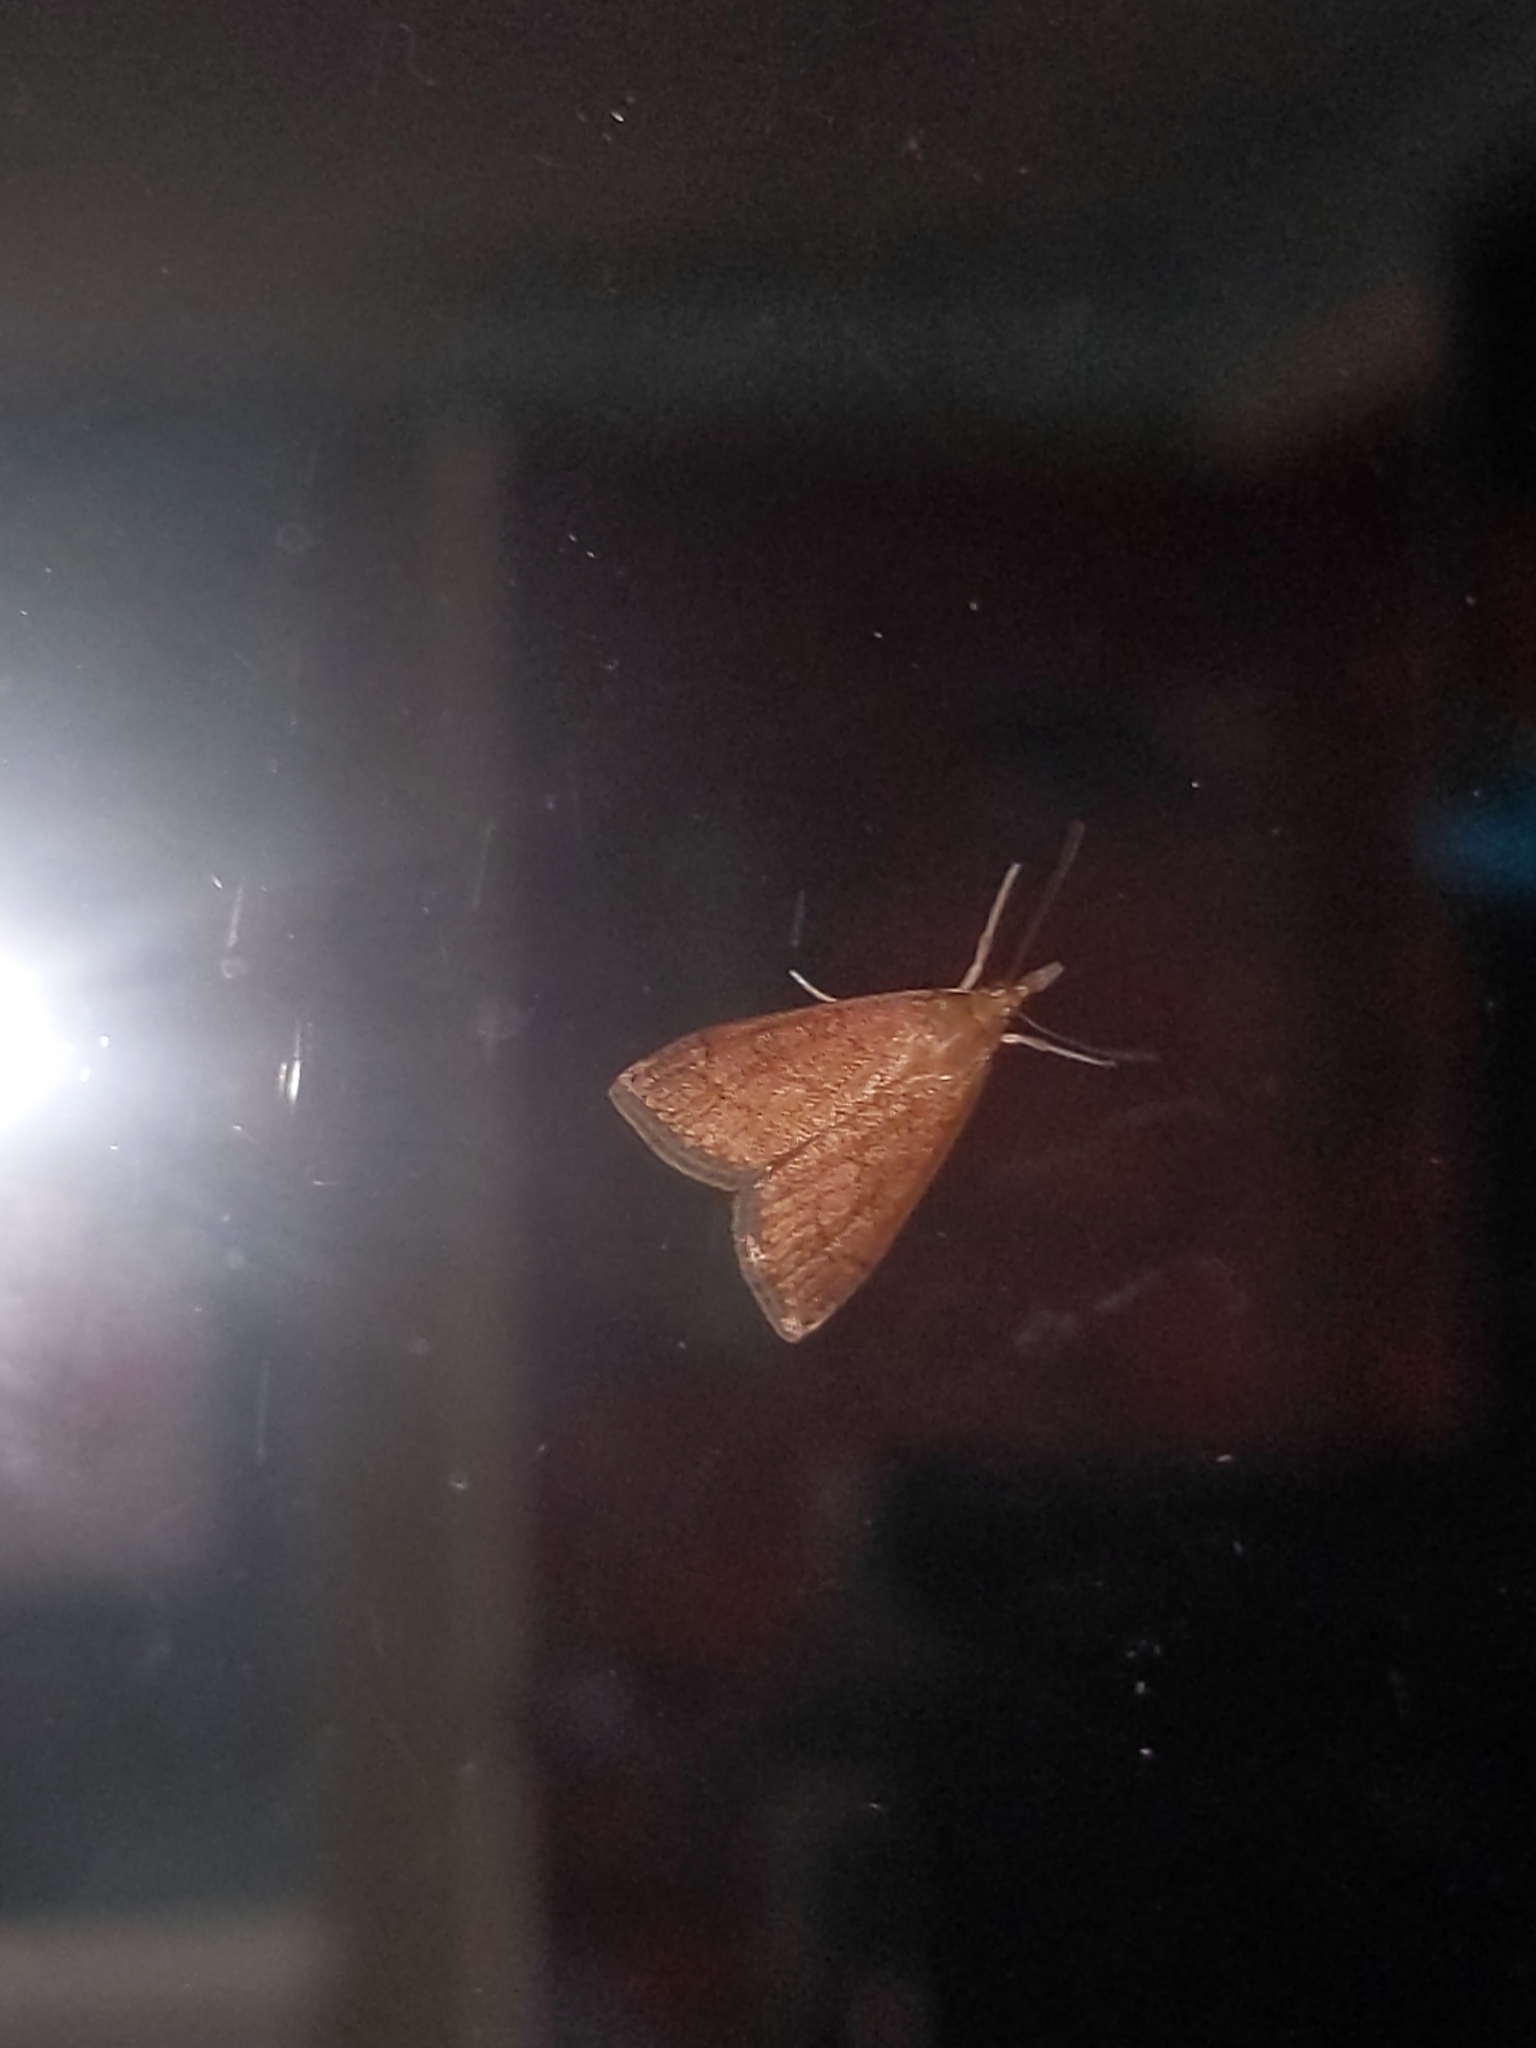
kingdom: Animalia
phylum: Arthropoda
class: Insecta
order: Lepidoptera
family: Crambidae
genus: Udea
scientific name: Udea rubigalis
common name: Celery leaftier moth
